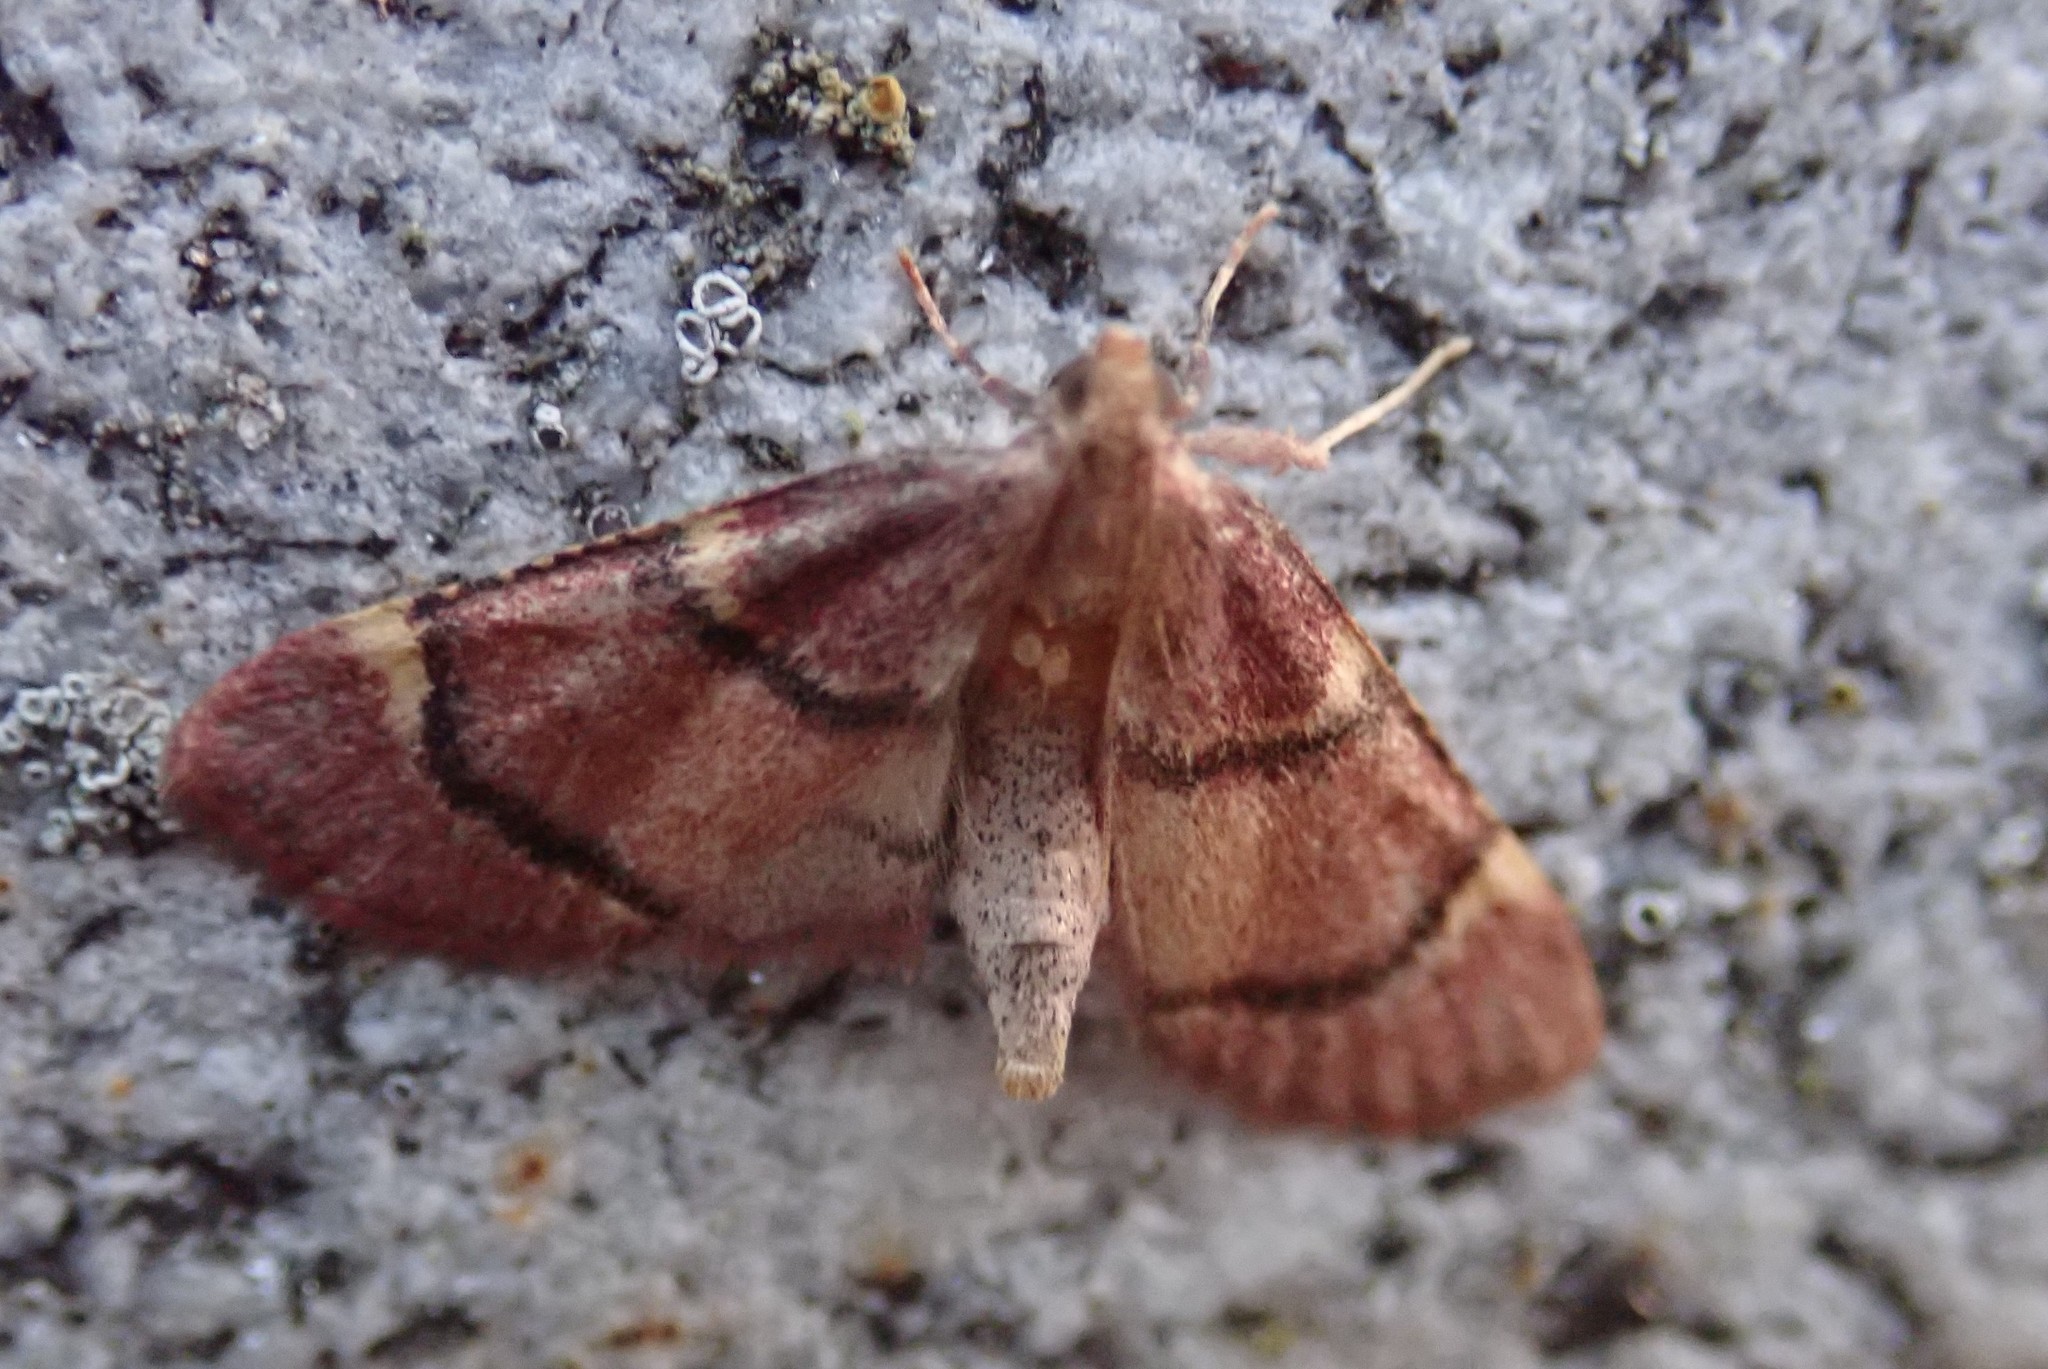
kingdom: Animalia
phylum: Arthropoda
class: Insecta
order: Lepidoptera
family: Pyralidae
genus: Hypsopygia
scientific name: Hypsopygia intermedialis
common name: Red-shawled moth
